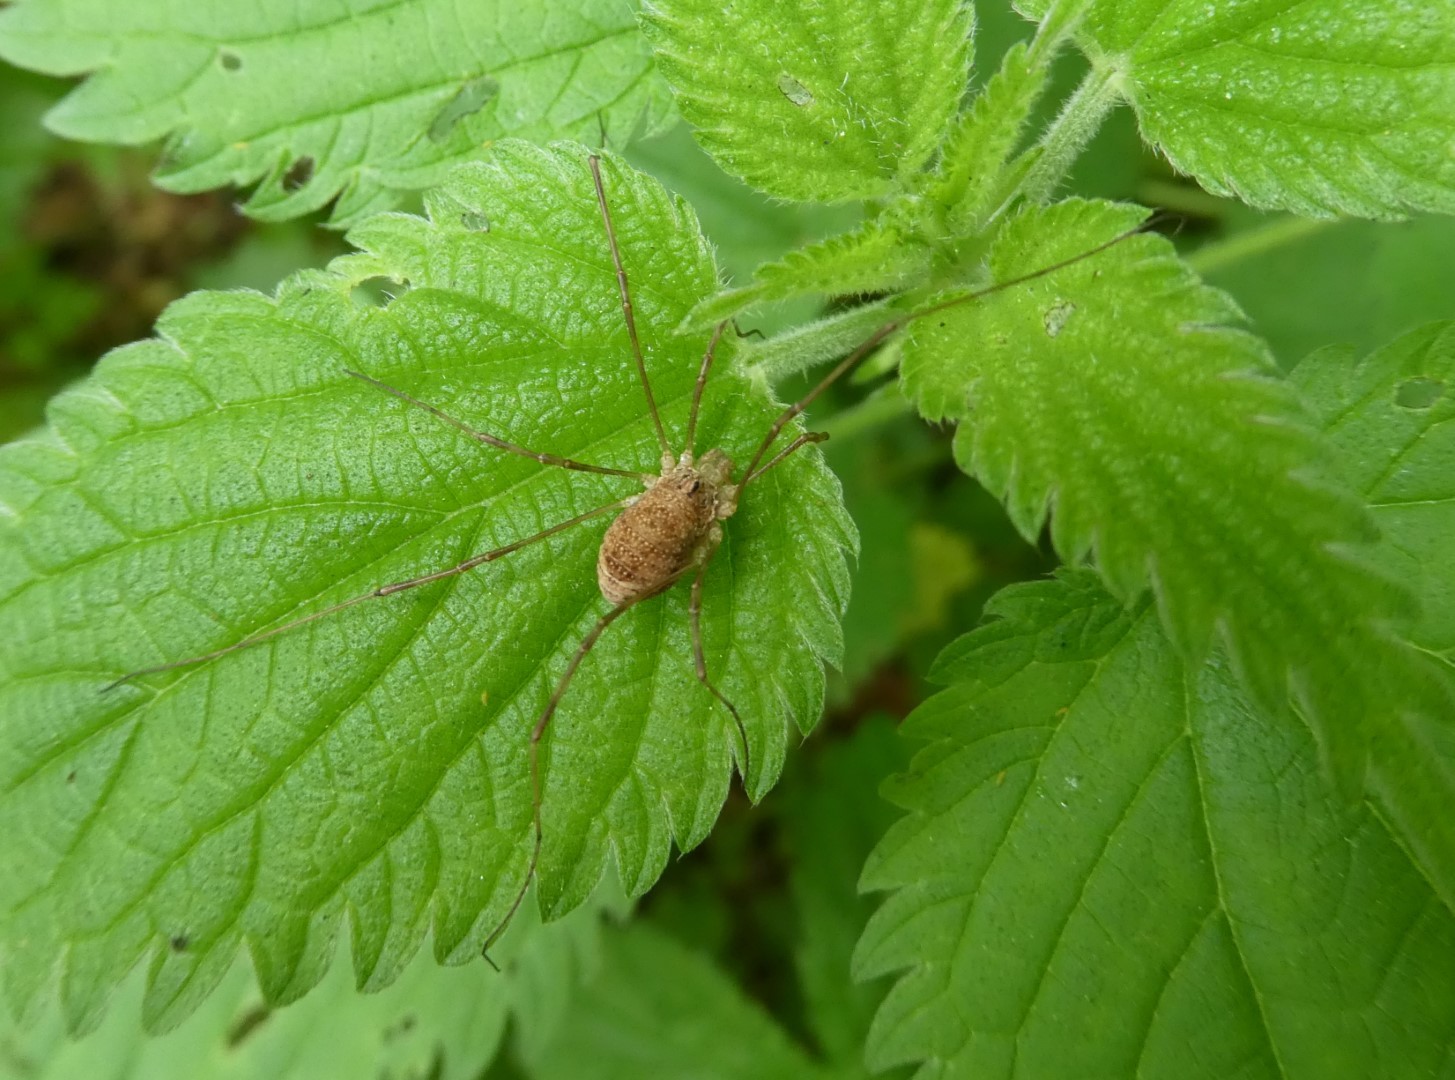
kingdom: Animalia
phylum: Arthropoda
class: Arachnida
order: Opiliones
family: Phalangiidae
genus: Rilaena
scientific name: Rilaena triangularis
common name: Spring harvestman
